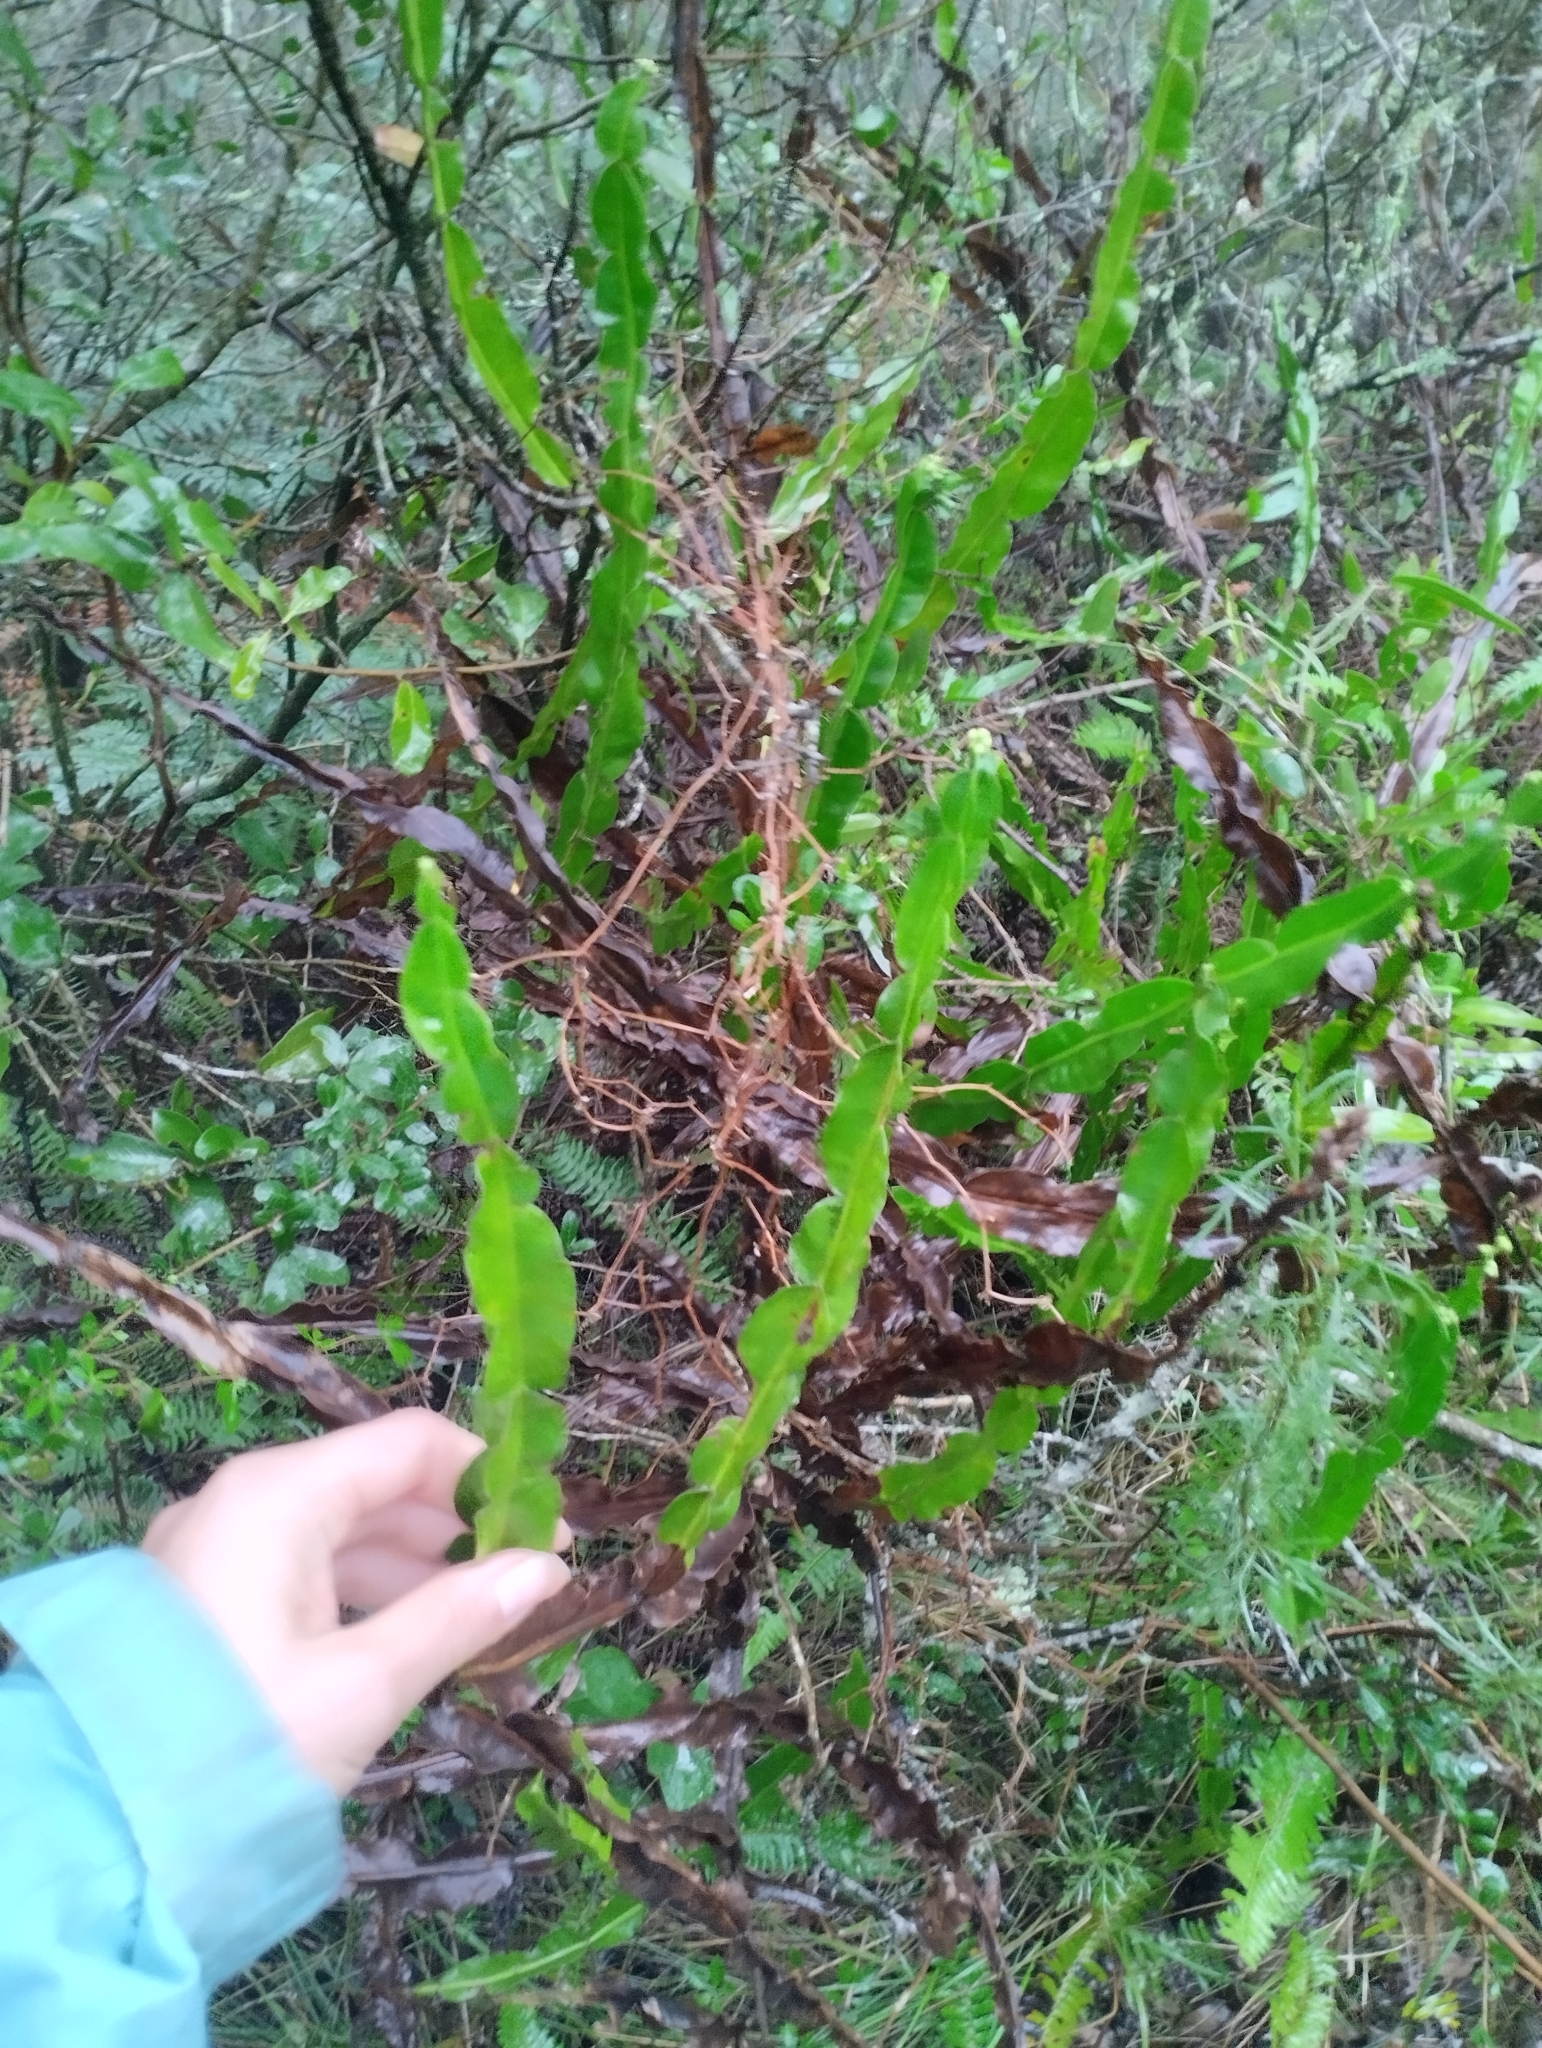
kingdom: Plantae
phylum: Tracheophyta
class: Magnoliopsida
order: Asterales
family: Asteraceae
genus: Baccharis
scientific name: Baccharis trimera
